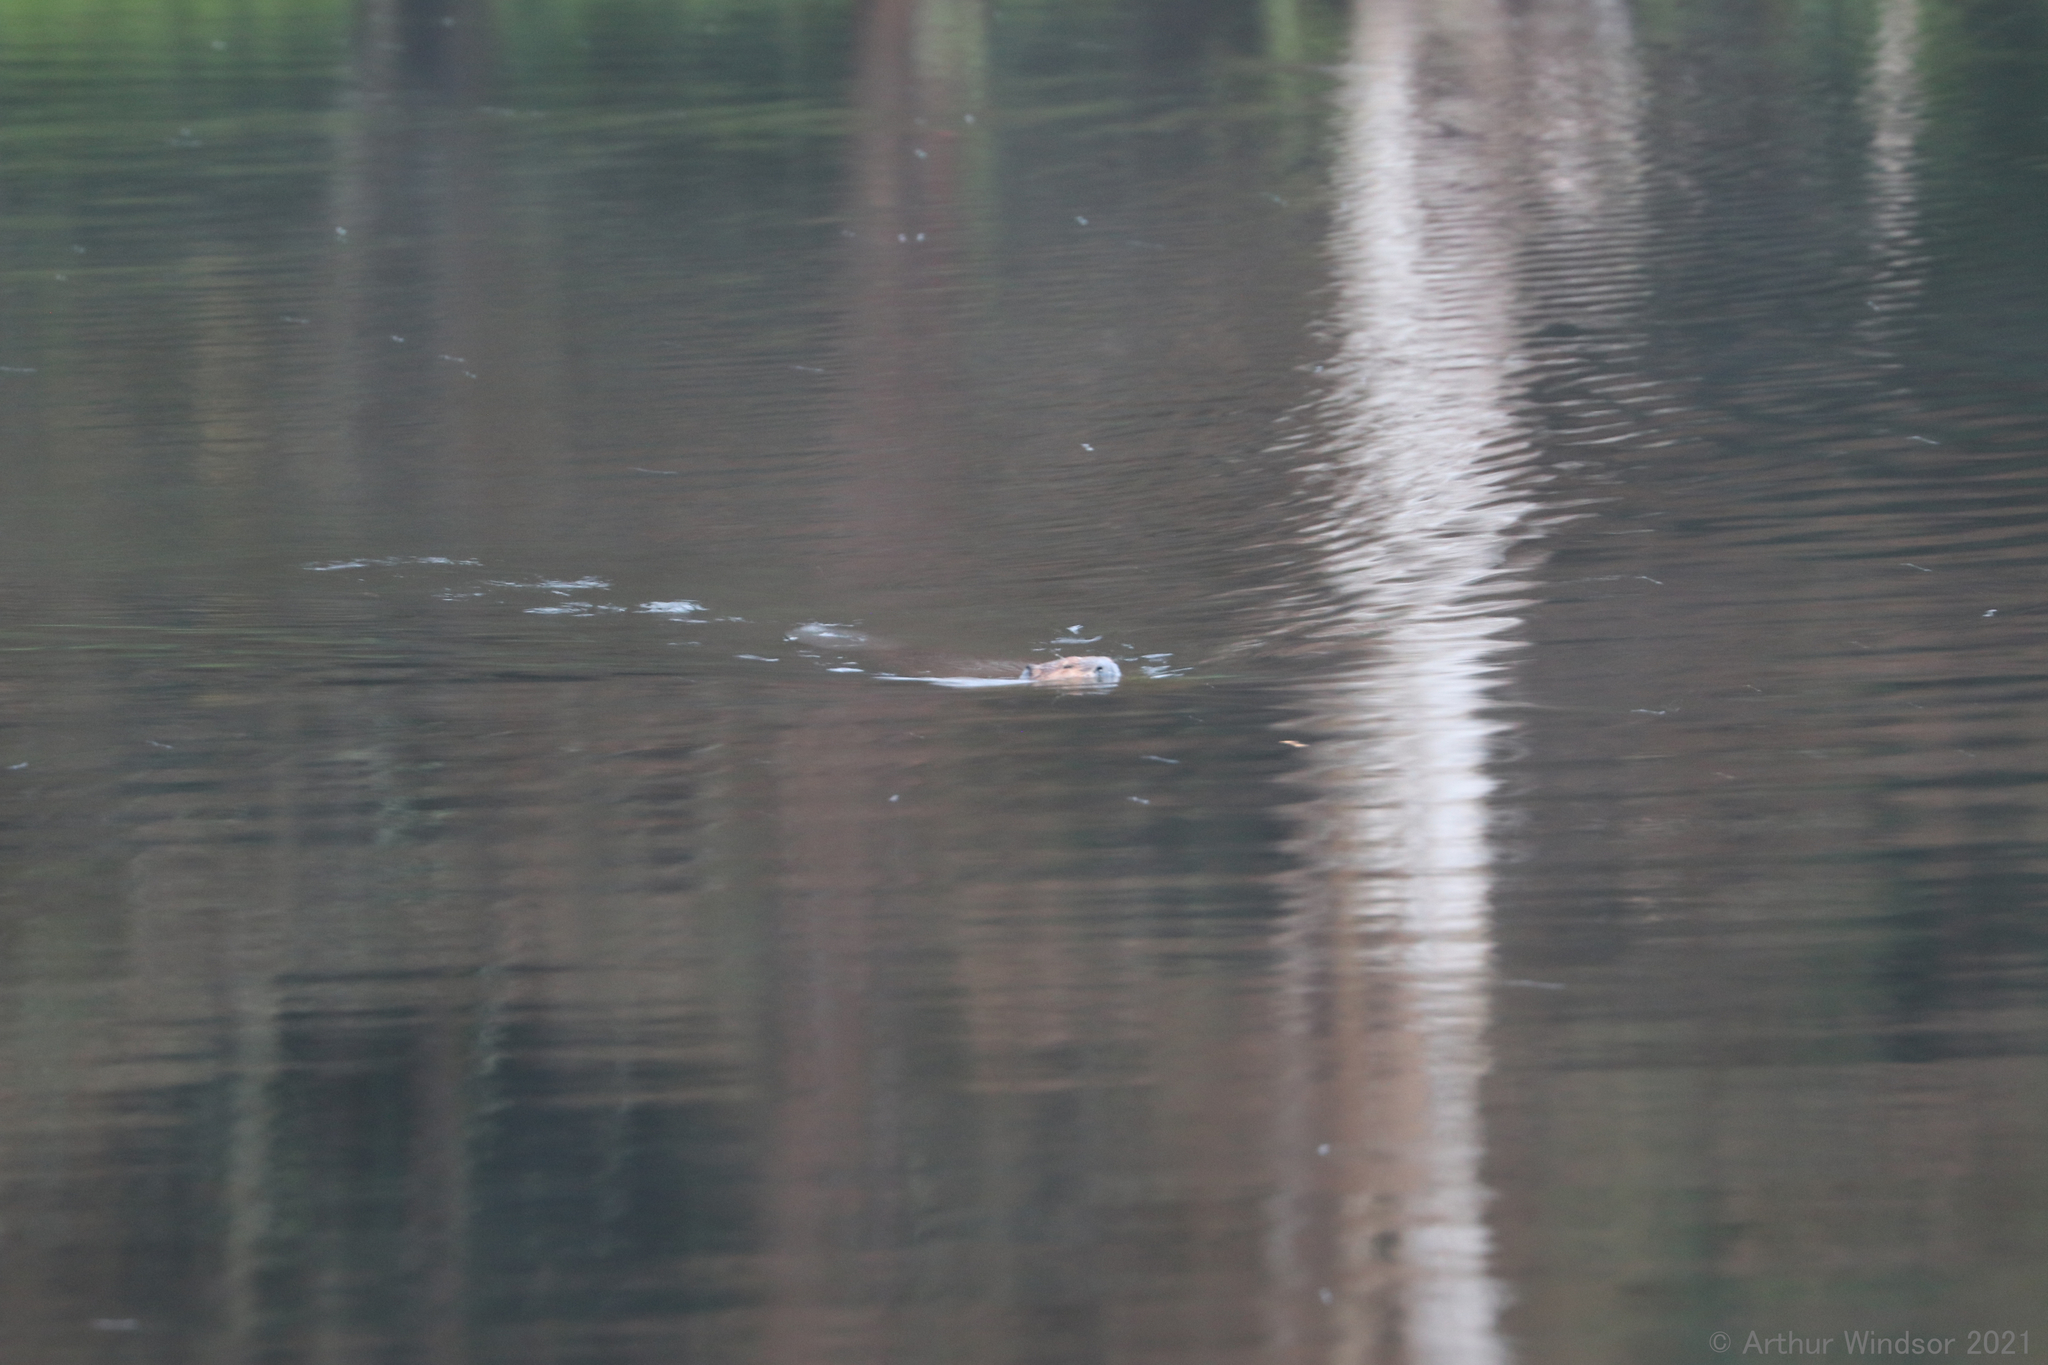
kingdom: Animalia
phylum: Chordata
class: Mammalia
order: Rodentia
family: Castoridae
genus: Castor
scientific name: Castor canadensis
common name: American beaver
